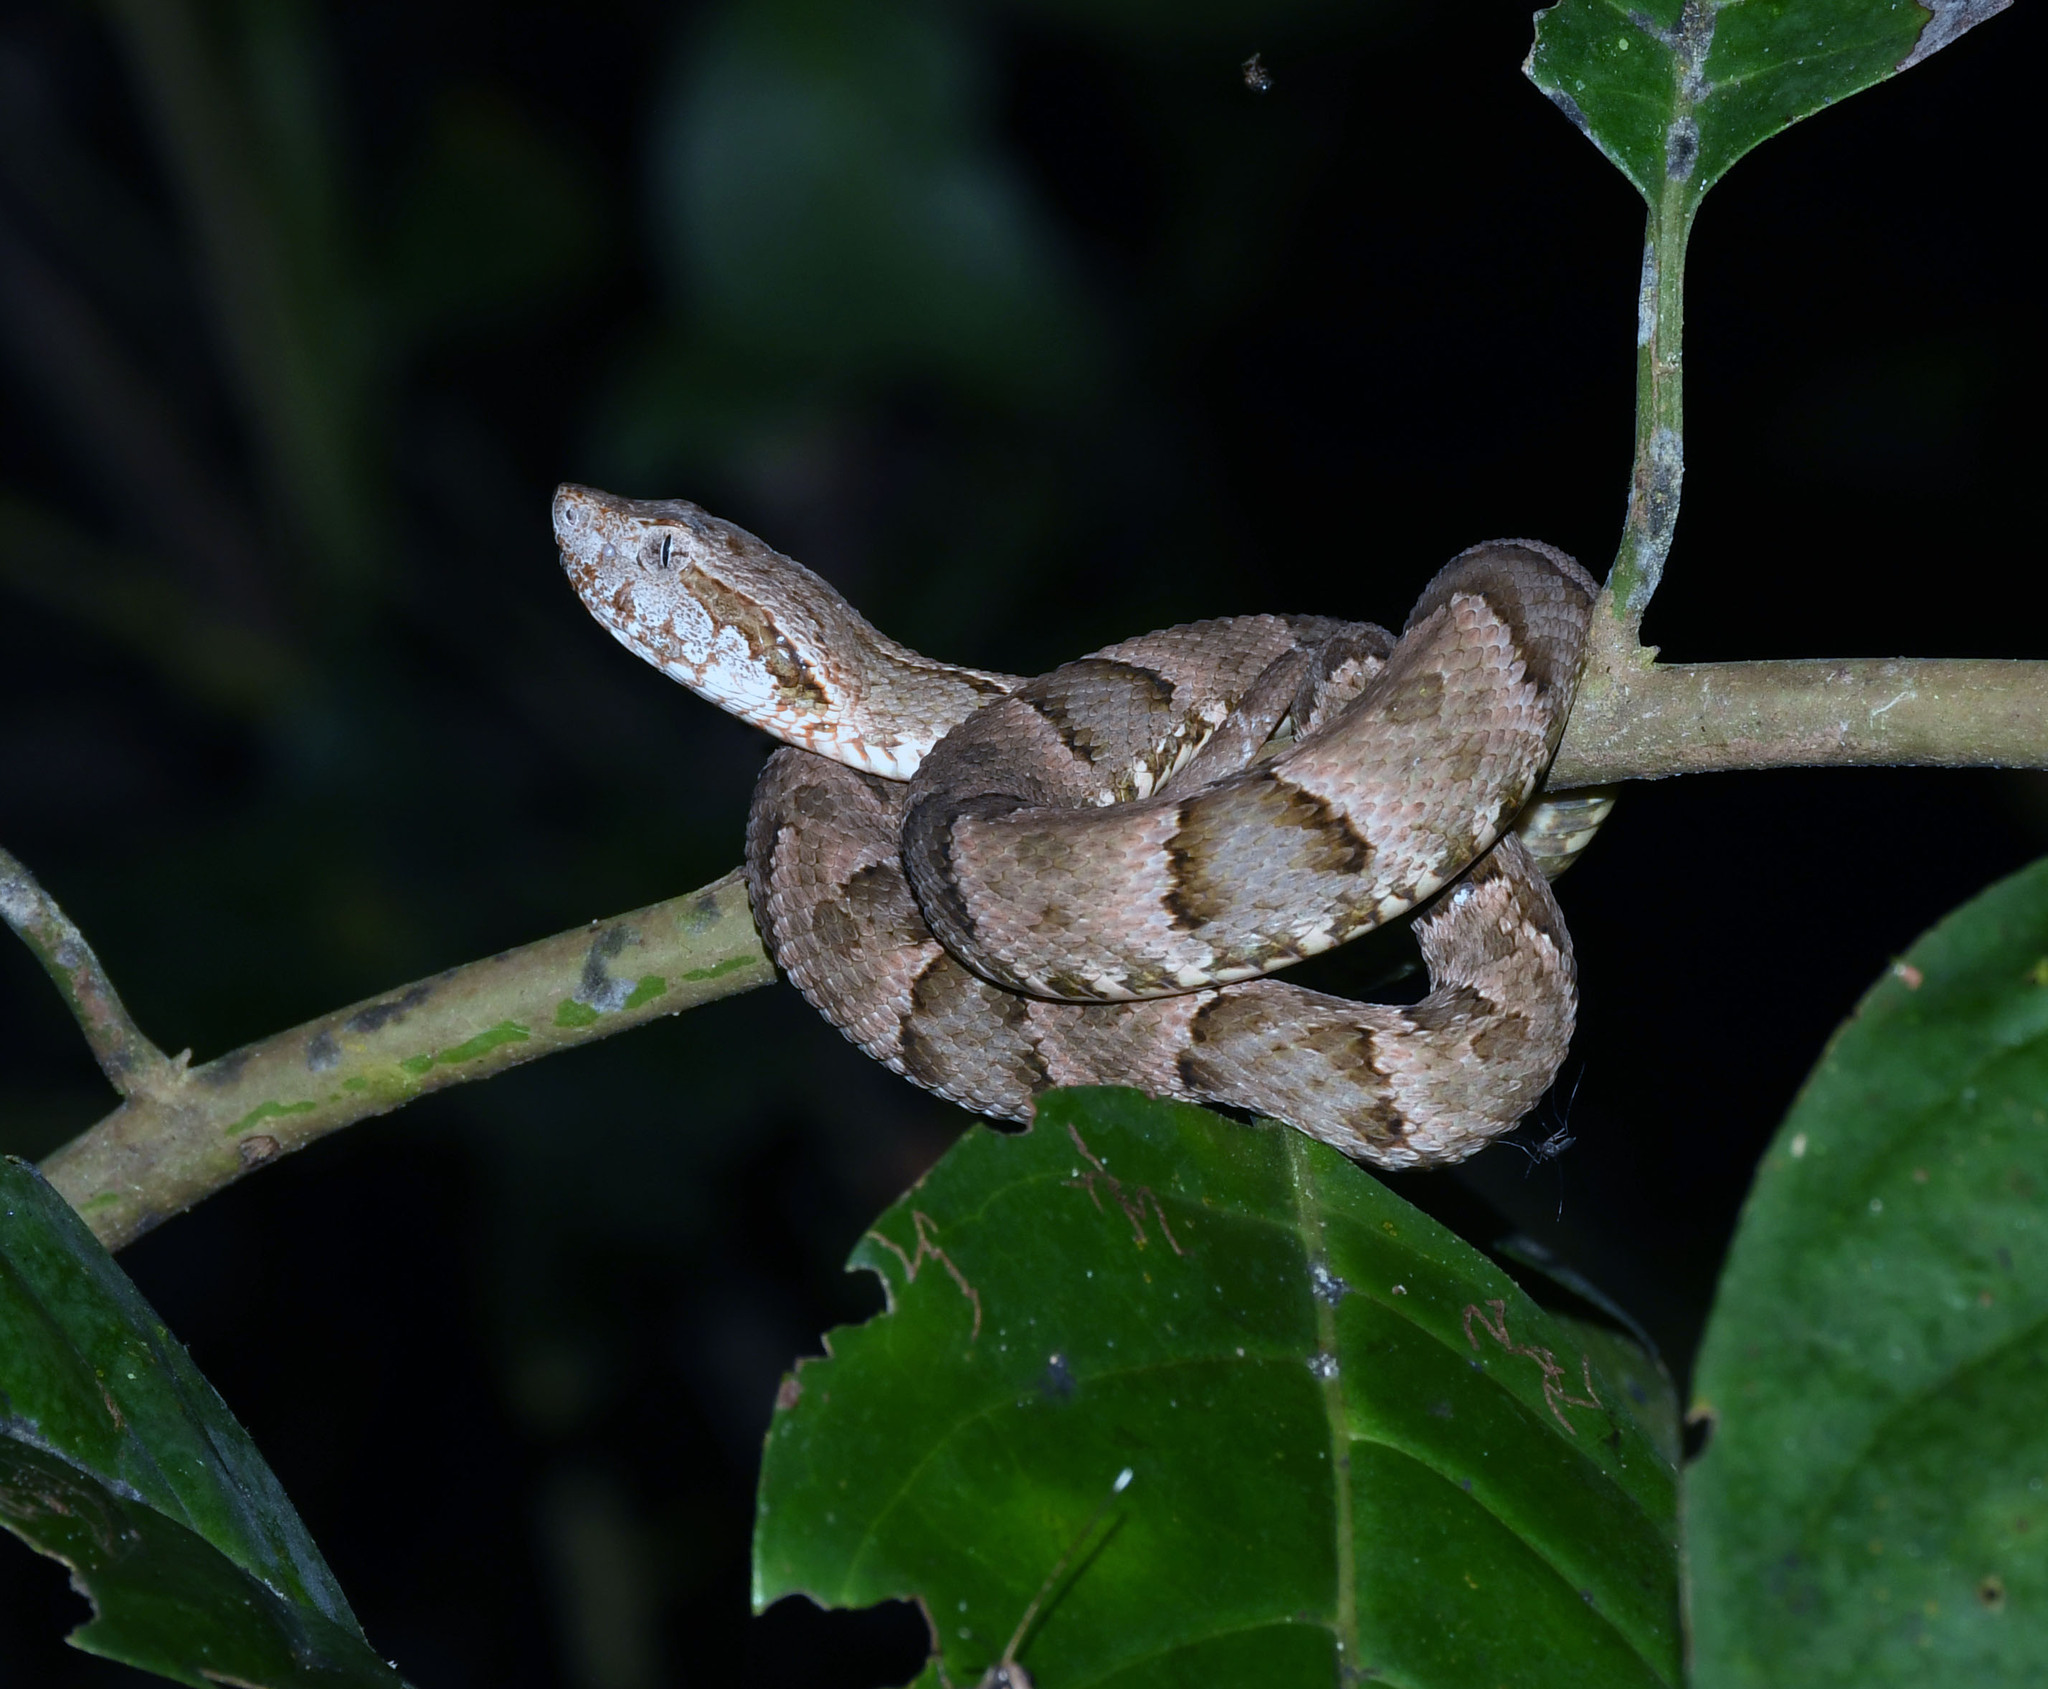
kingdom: Animalia
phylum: Chordata
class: Squamata
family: Viperidae
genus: Bothrops
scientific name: Bothrops atrox
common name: Common lancehead
